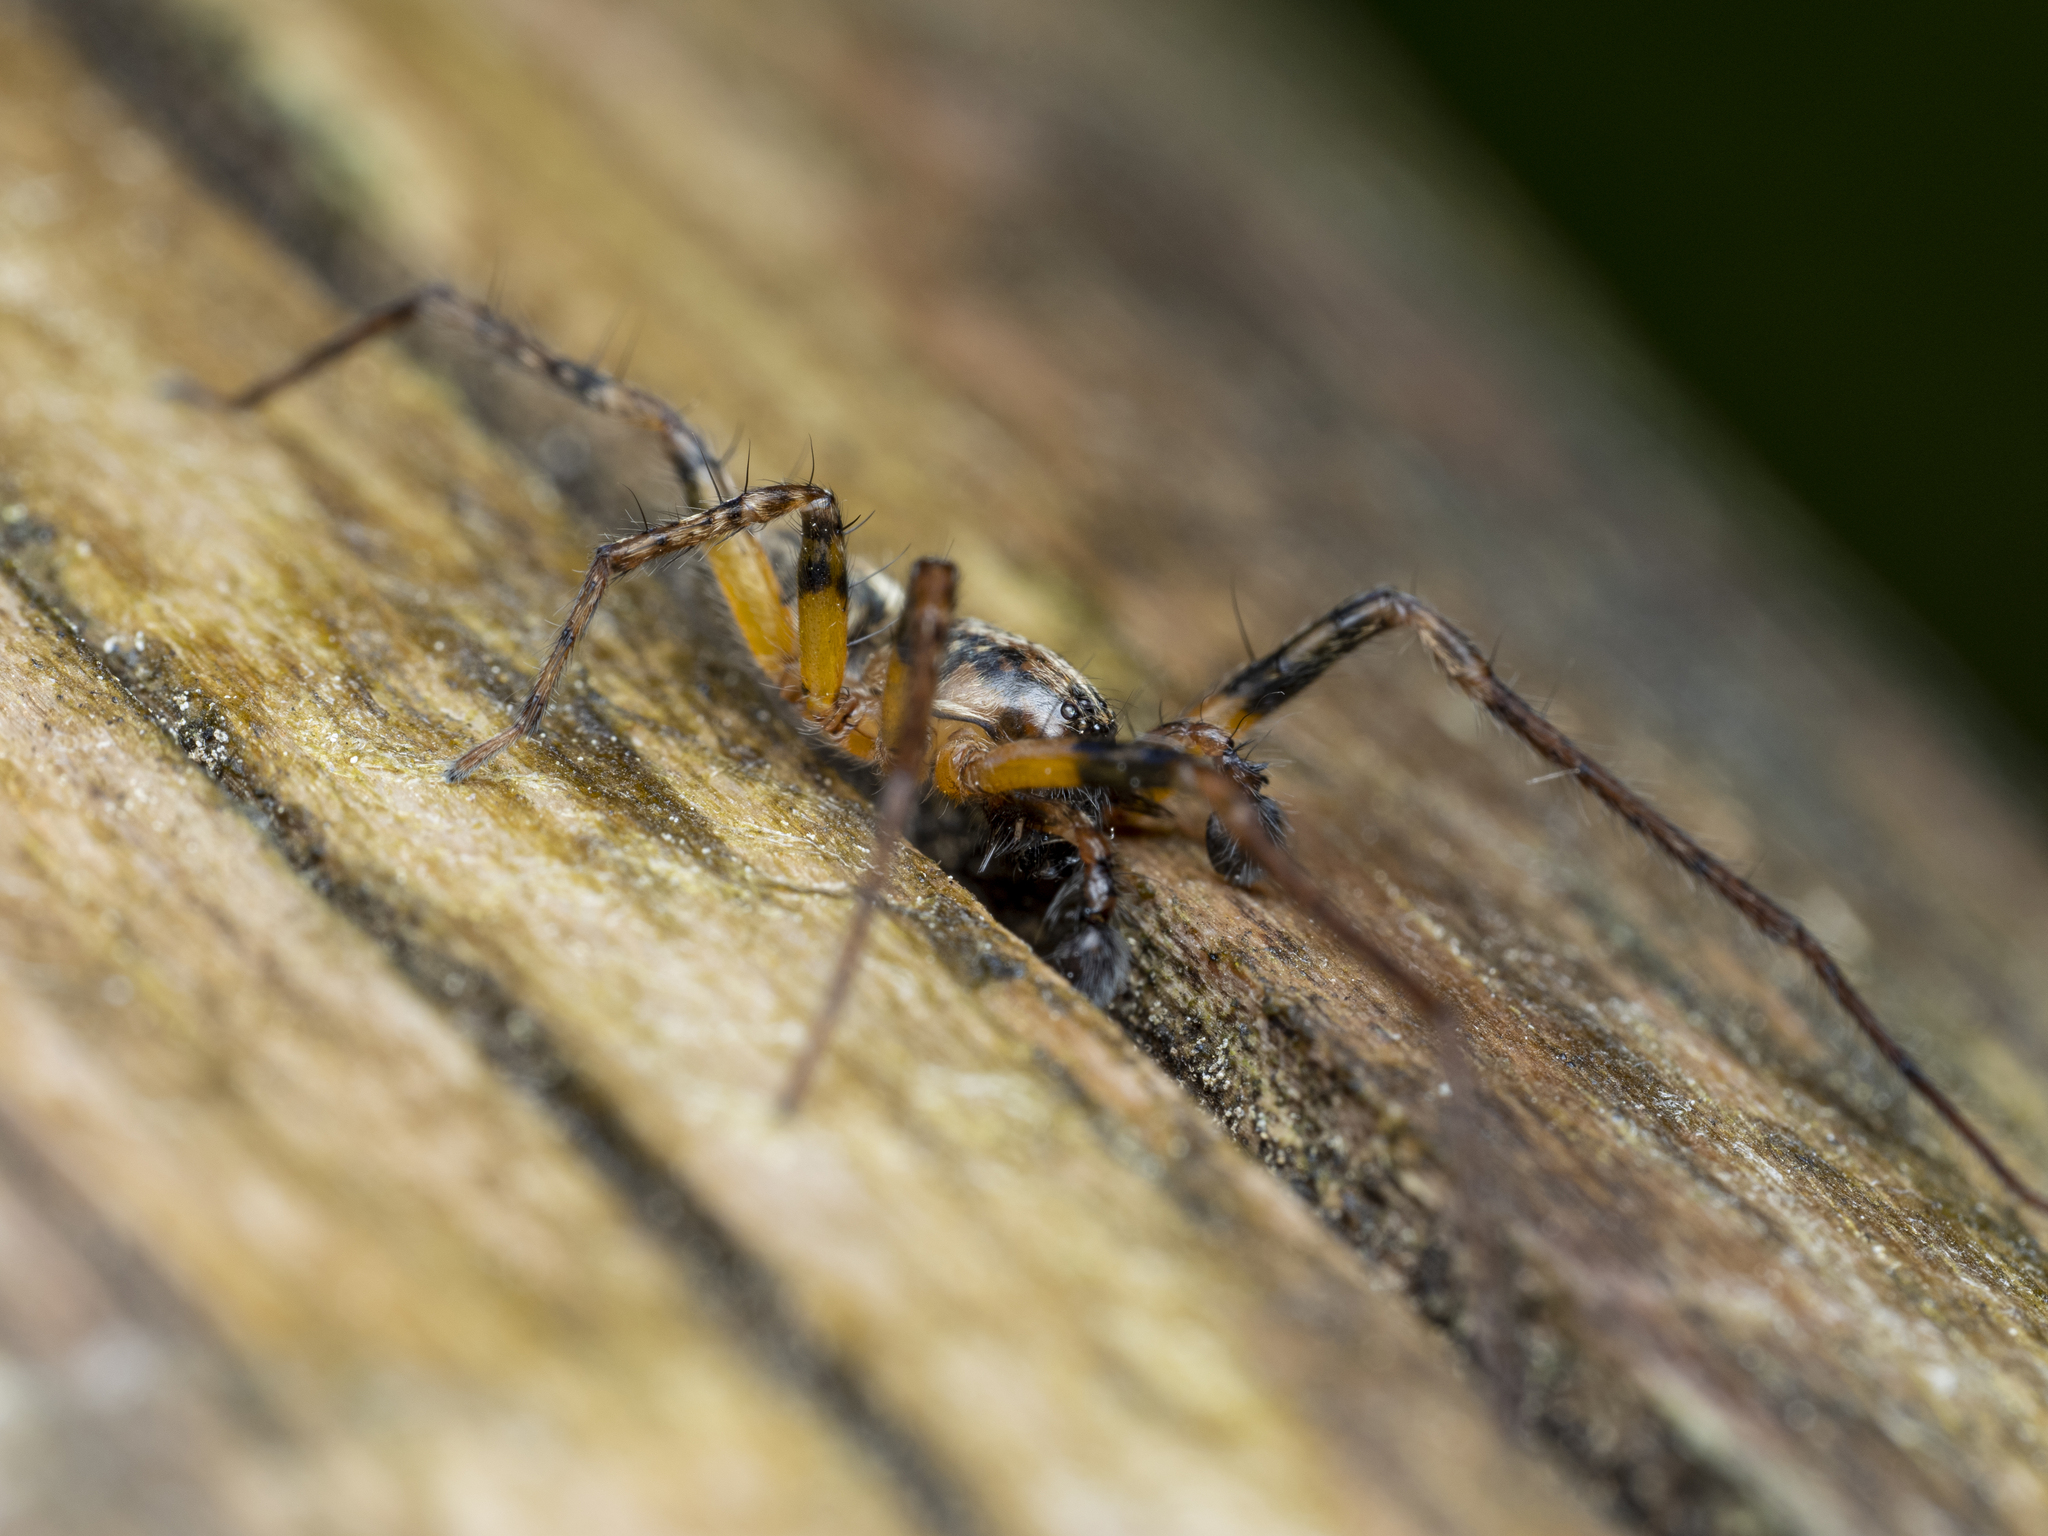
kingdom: Animalia
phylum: Arthropoda
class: Arachnida
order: Araneae
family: Anyphaenidae
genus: Anyphaena
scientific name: Anyphaena accentuata
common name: Buzzing spider
